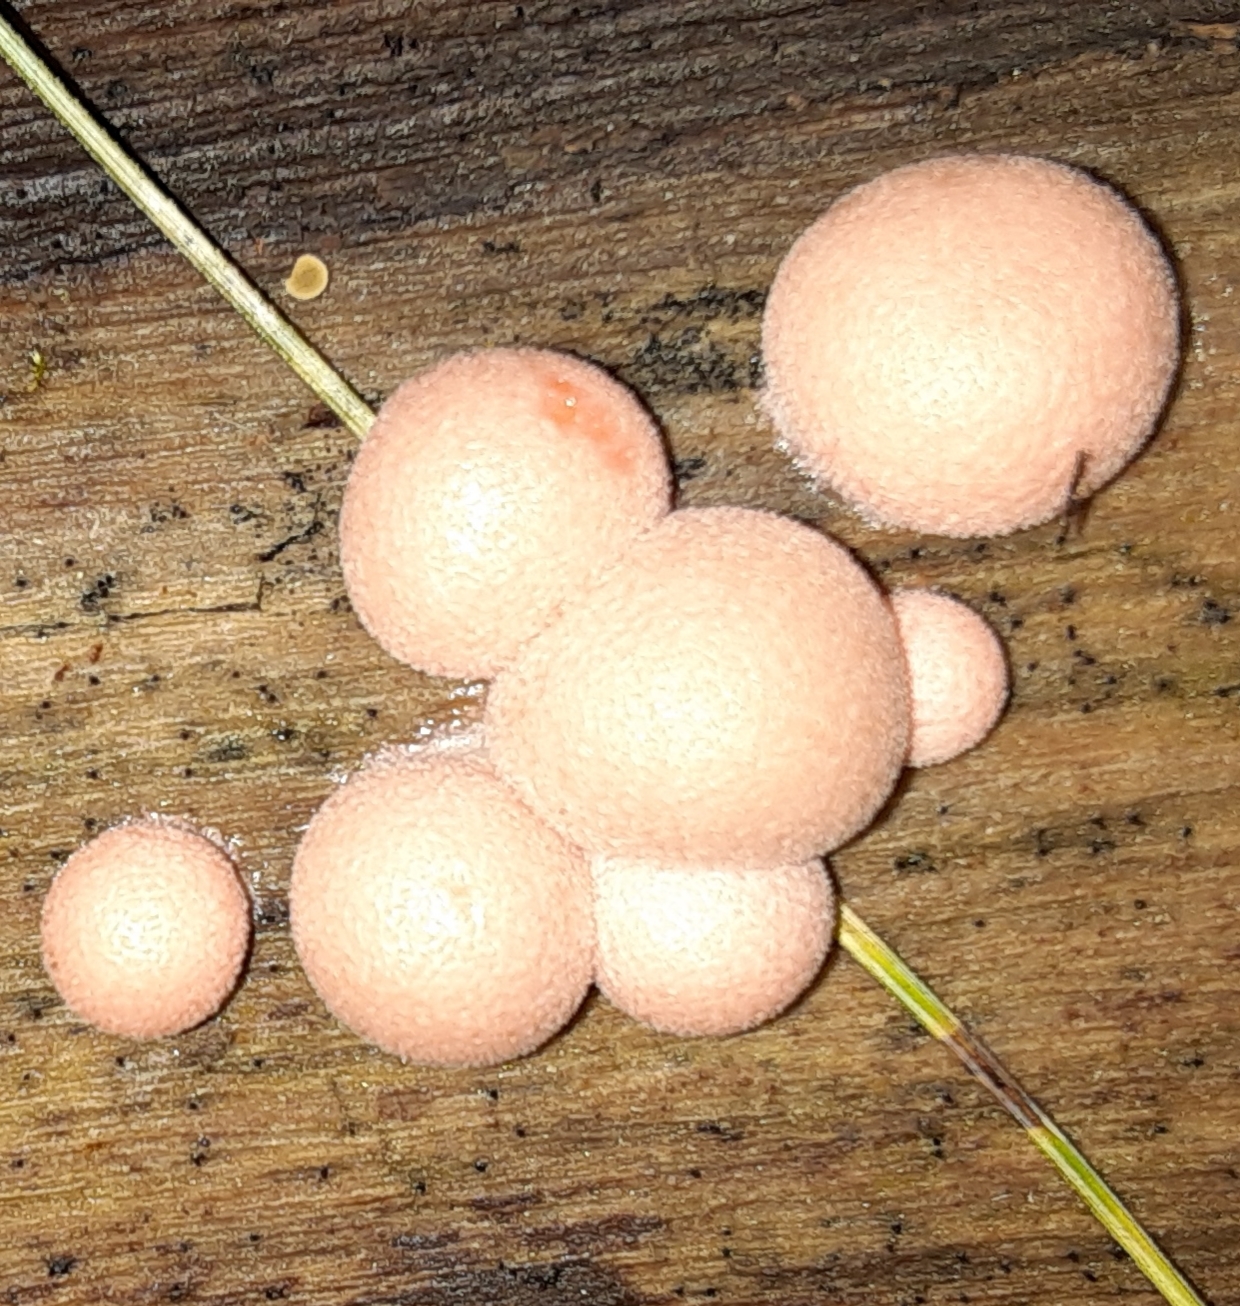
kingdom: Protozoa
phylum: Mycetozoa
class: Myxomycetes
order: Cribrariales
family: Tubiferaceae
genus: Lycogala
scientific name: Lycogala epidendrum
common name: Wolf's milk
